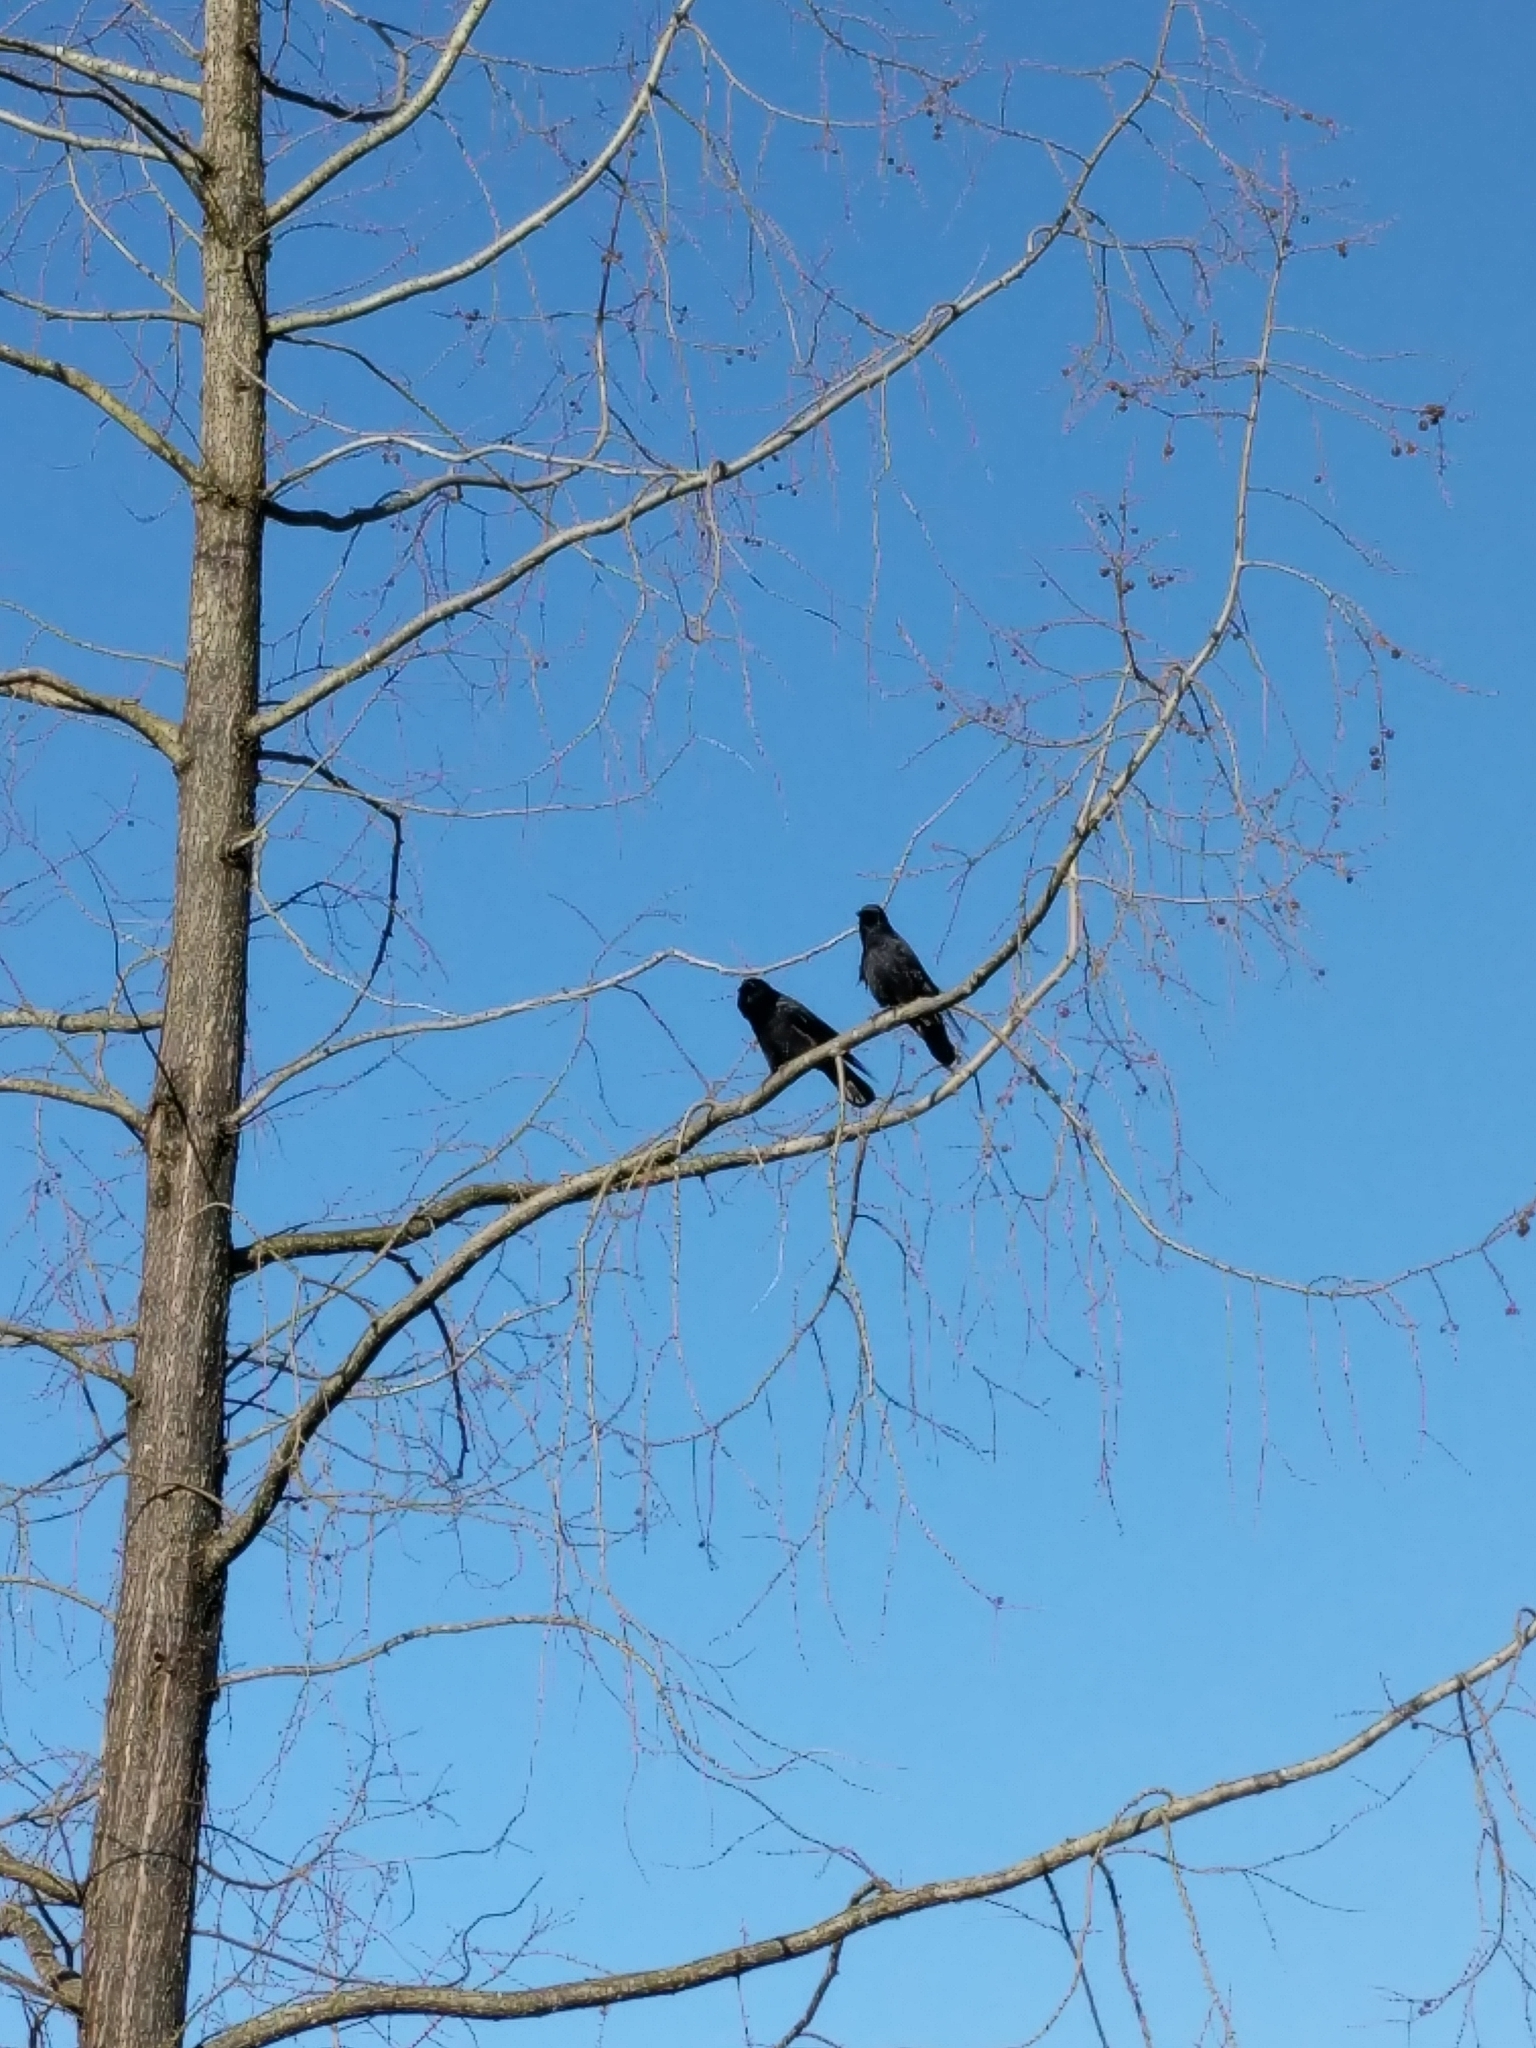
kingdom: Animalia
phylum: Chordata
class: Aves
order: Passeriformes
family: Corvidae
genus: Corvus
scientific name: Corvus brachyrhynchos
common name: American crow
